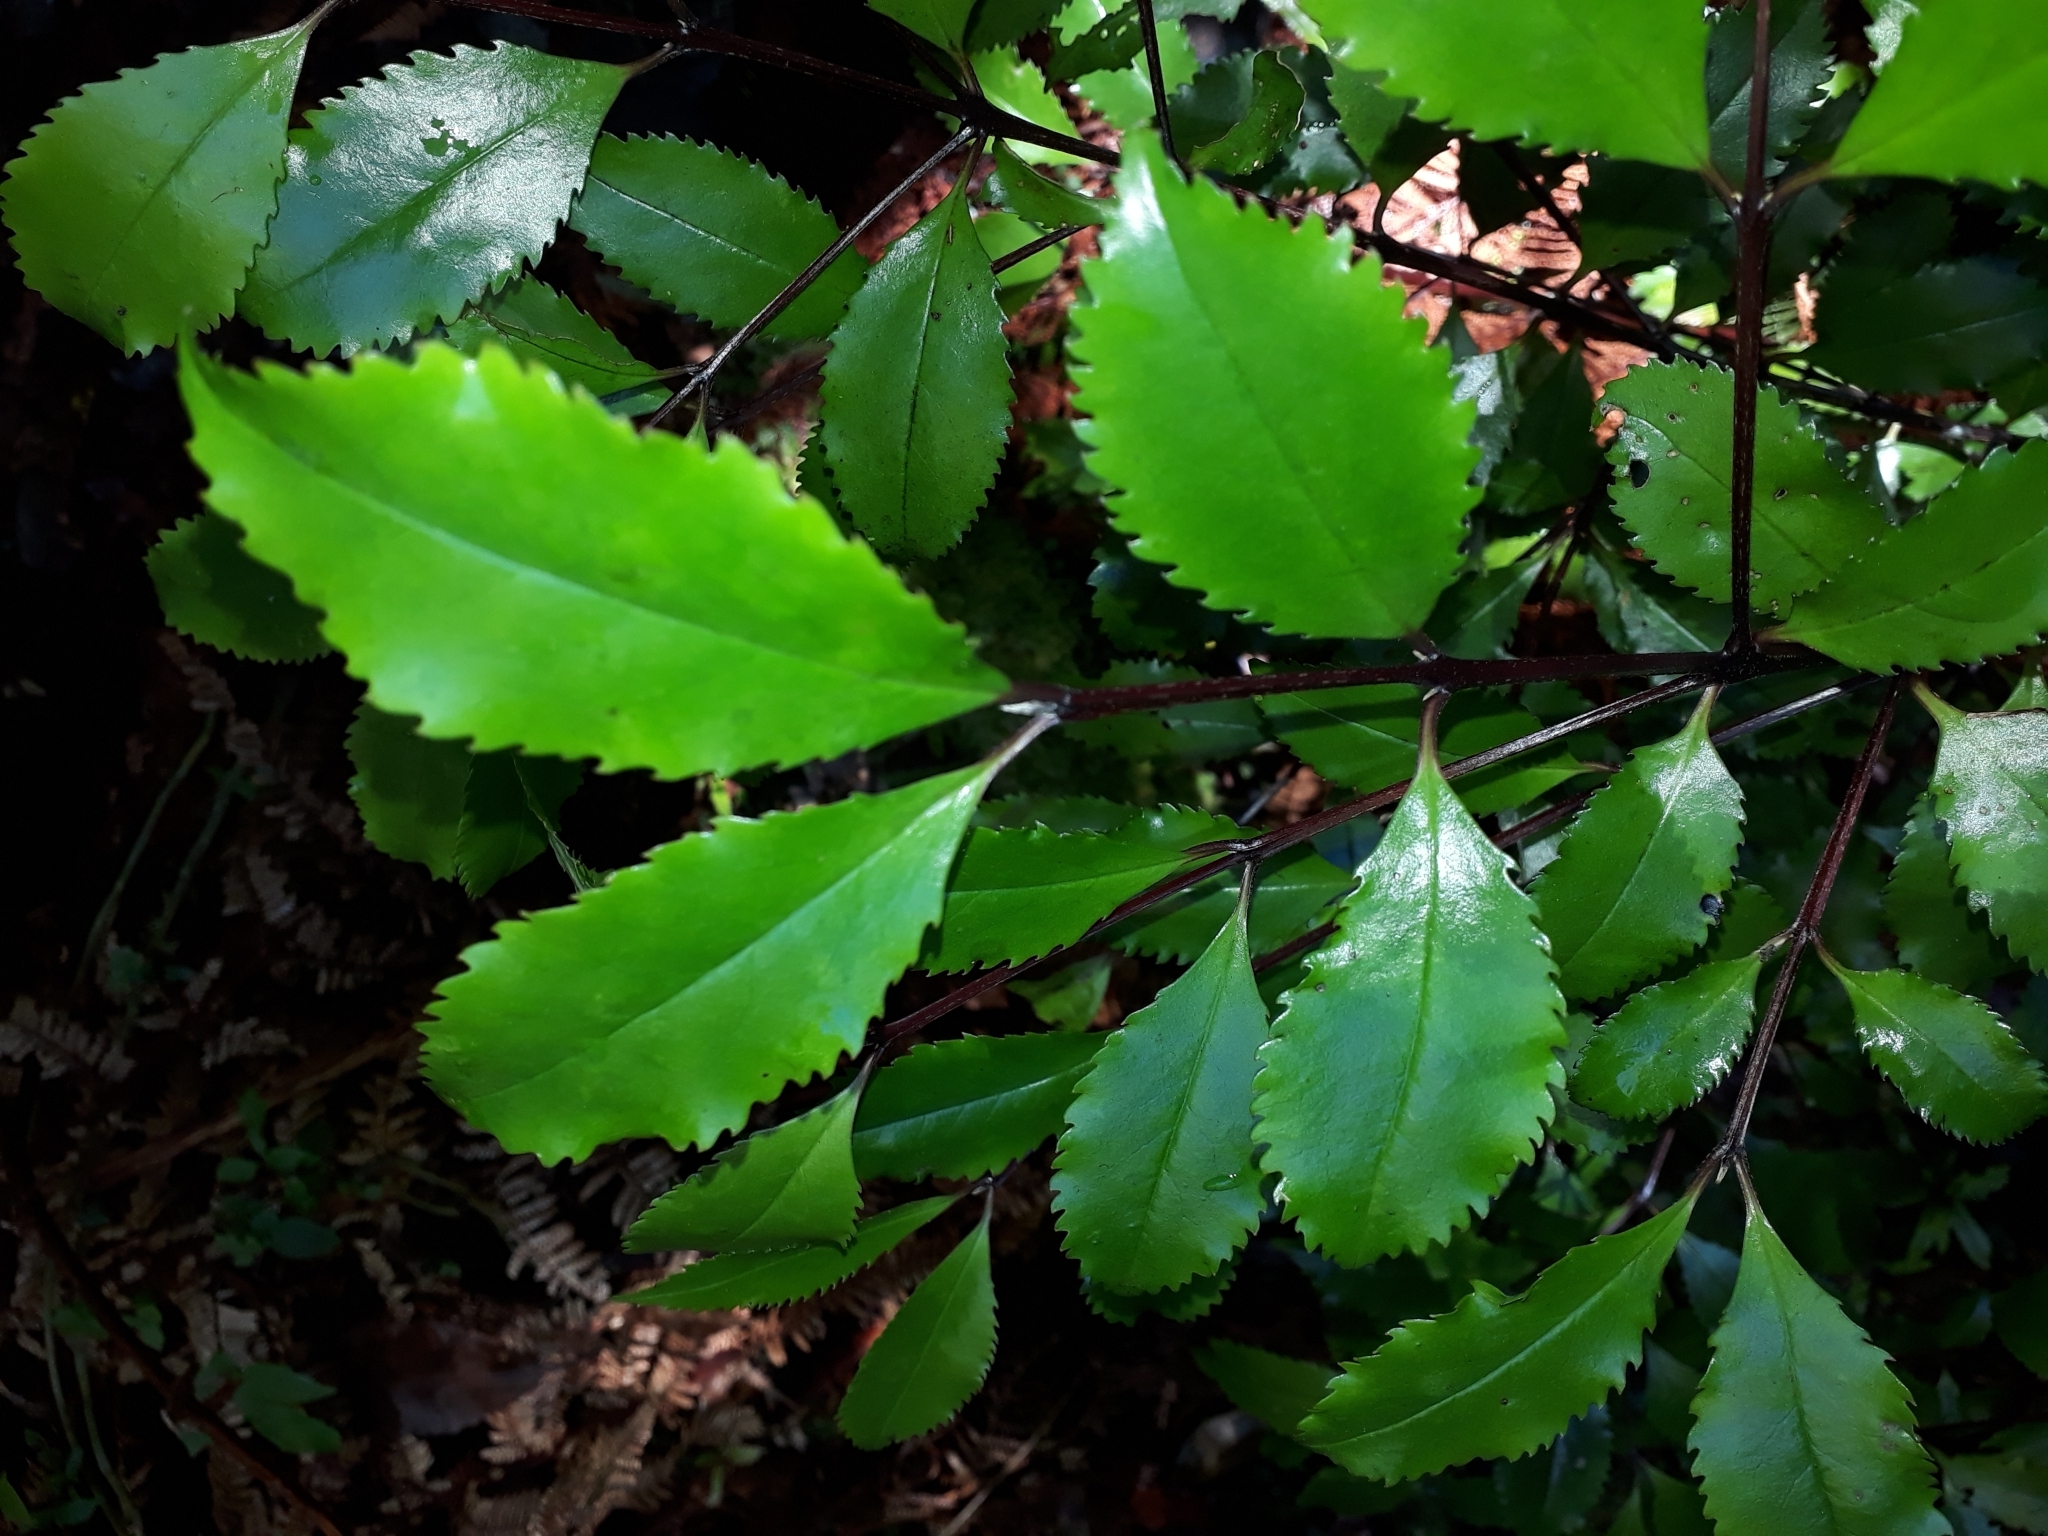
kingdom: Plantae
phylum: Tracheophyta
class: Magnoliopsida
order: Laurales
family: Atherospermataceae
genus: Laurelia
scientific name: Laurelia novae-zelandiae
